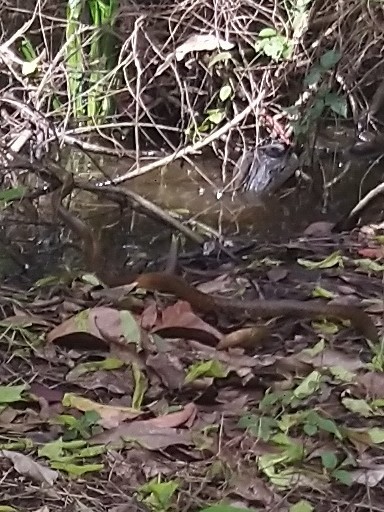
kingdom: Animalia
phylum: Chordata
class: Squamata
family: Colubridae
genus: Ptyas
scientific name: Ptyas mucosa
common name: Oriental ratsnake
